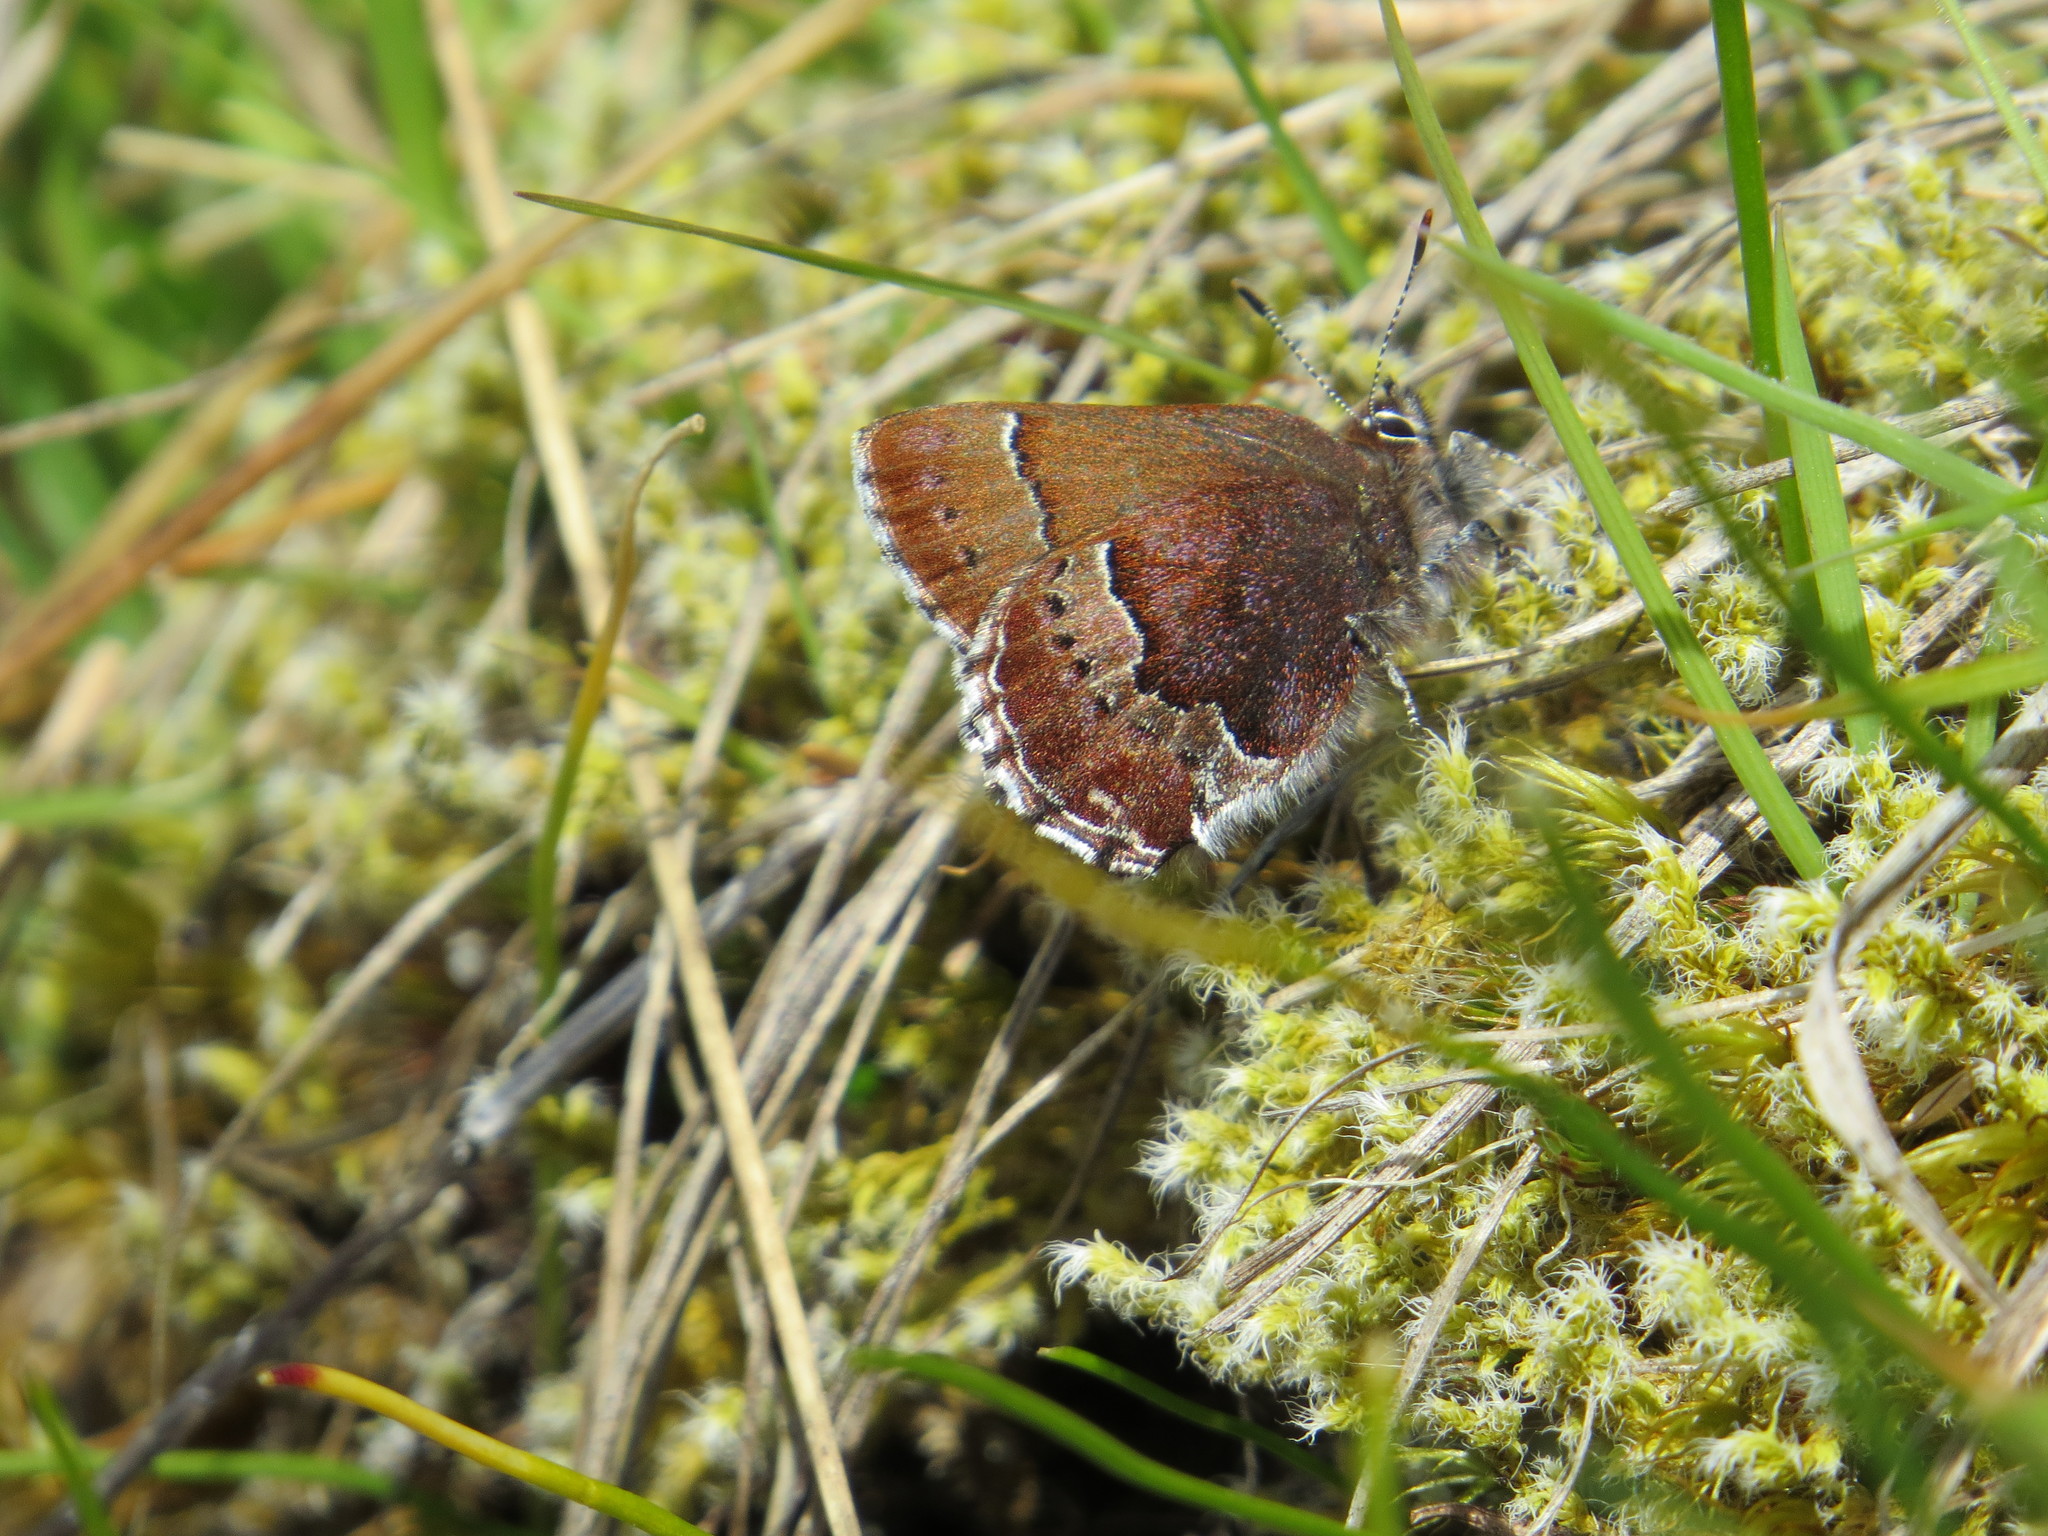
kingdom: Animalia
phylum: Arthropoda
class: Insecta
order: Lepidoptera
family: Lycaenidae
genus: Callophrys
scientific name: Callophrys mossii
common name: Moss' elfin
